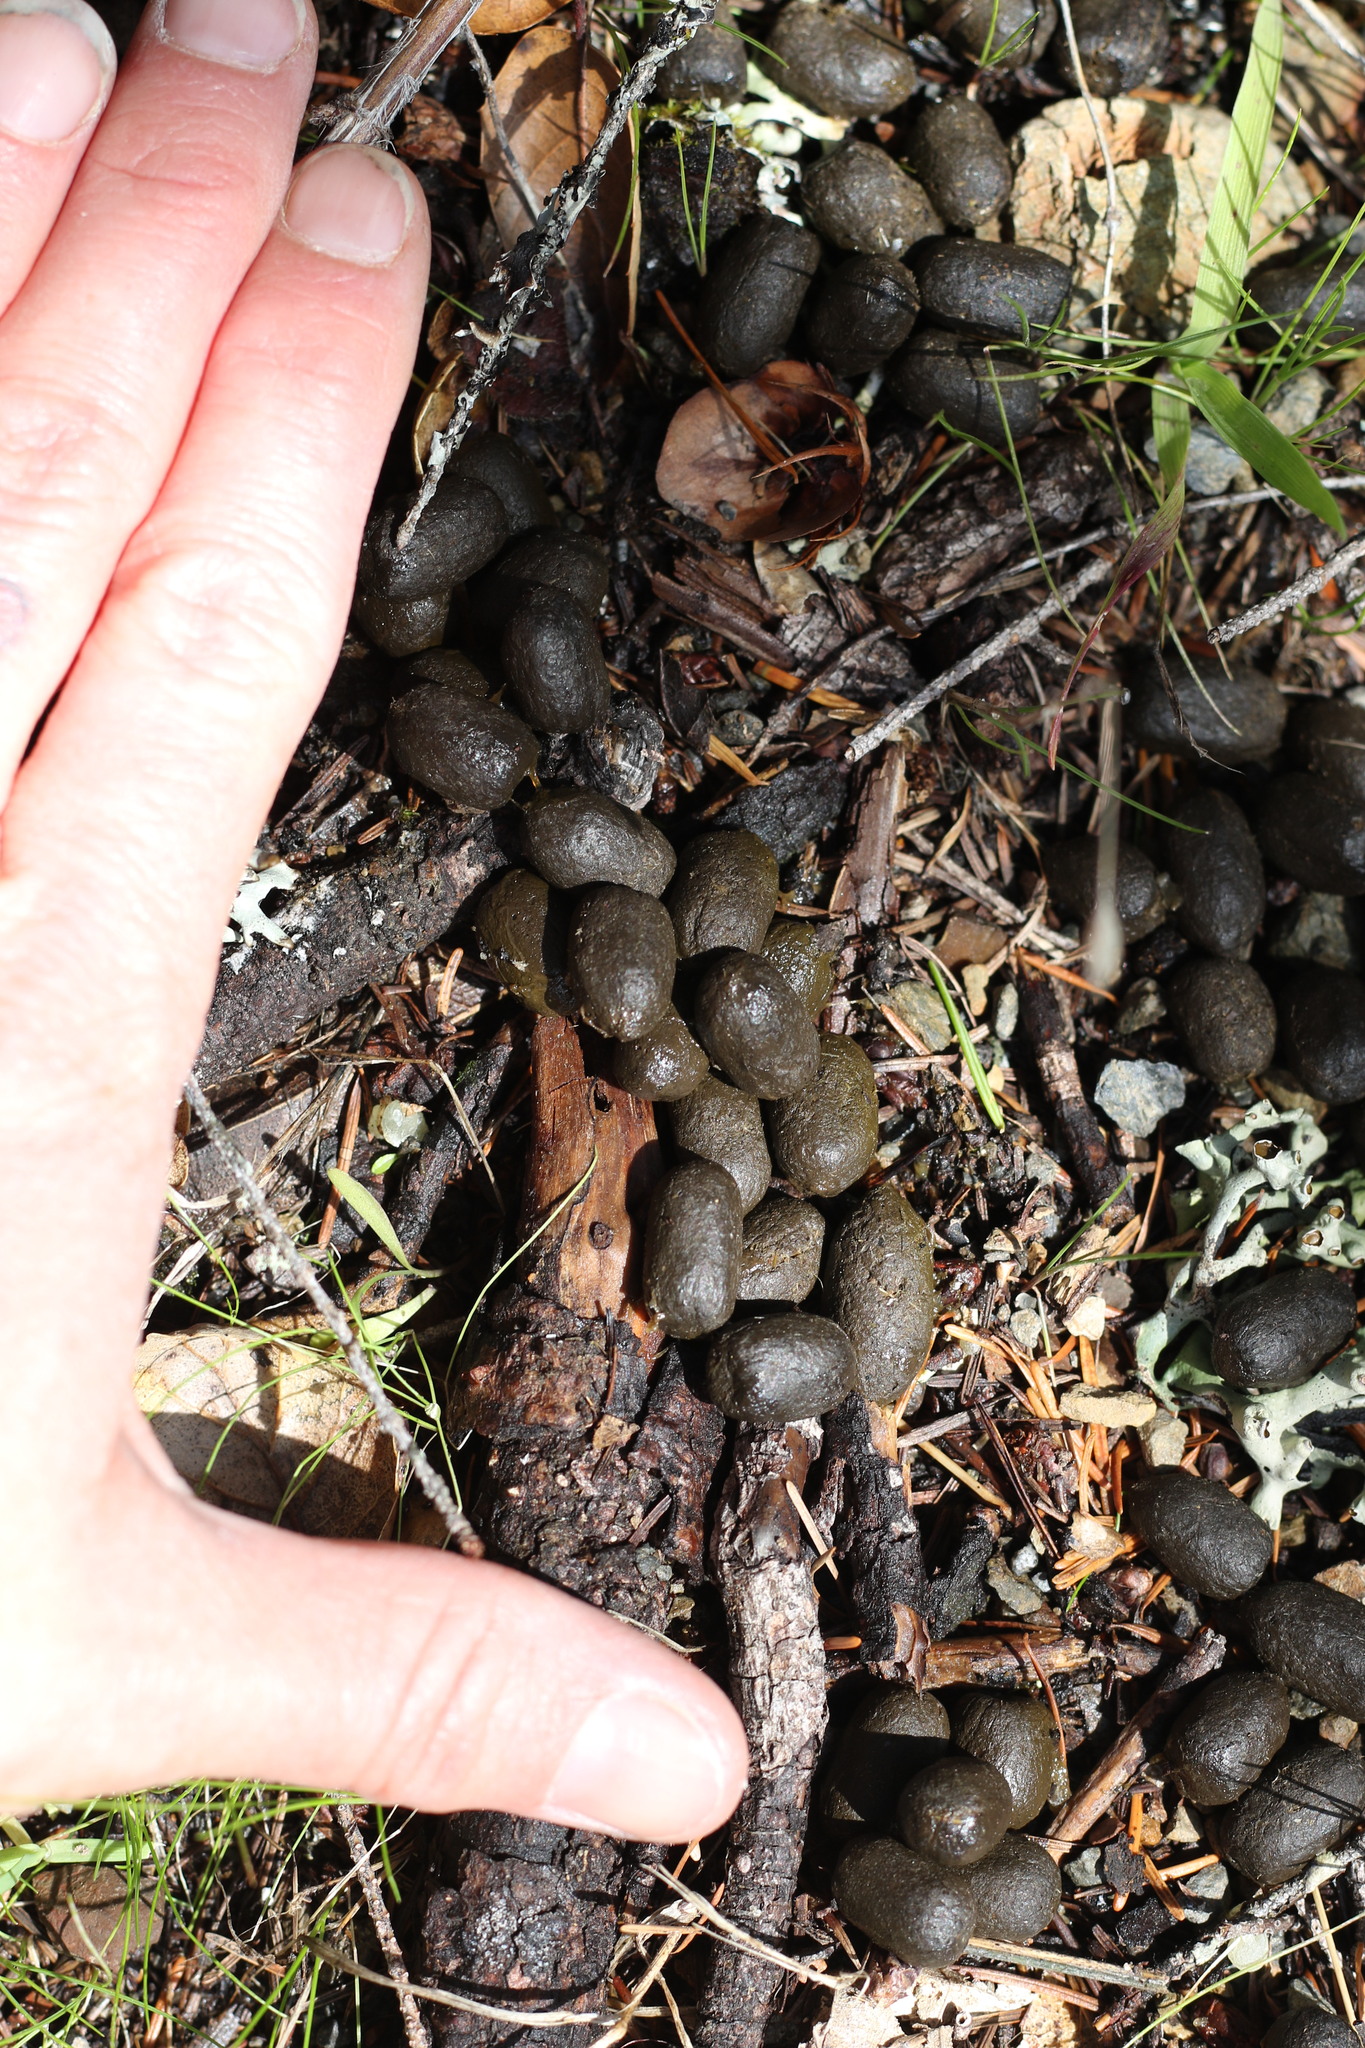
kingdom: Animalia
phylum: Chordata
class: Mammalia
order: Artiodactyla
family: Cervidae
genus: Odocoileus
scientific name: Odocoileus hemionus
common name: Mule deer
